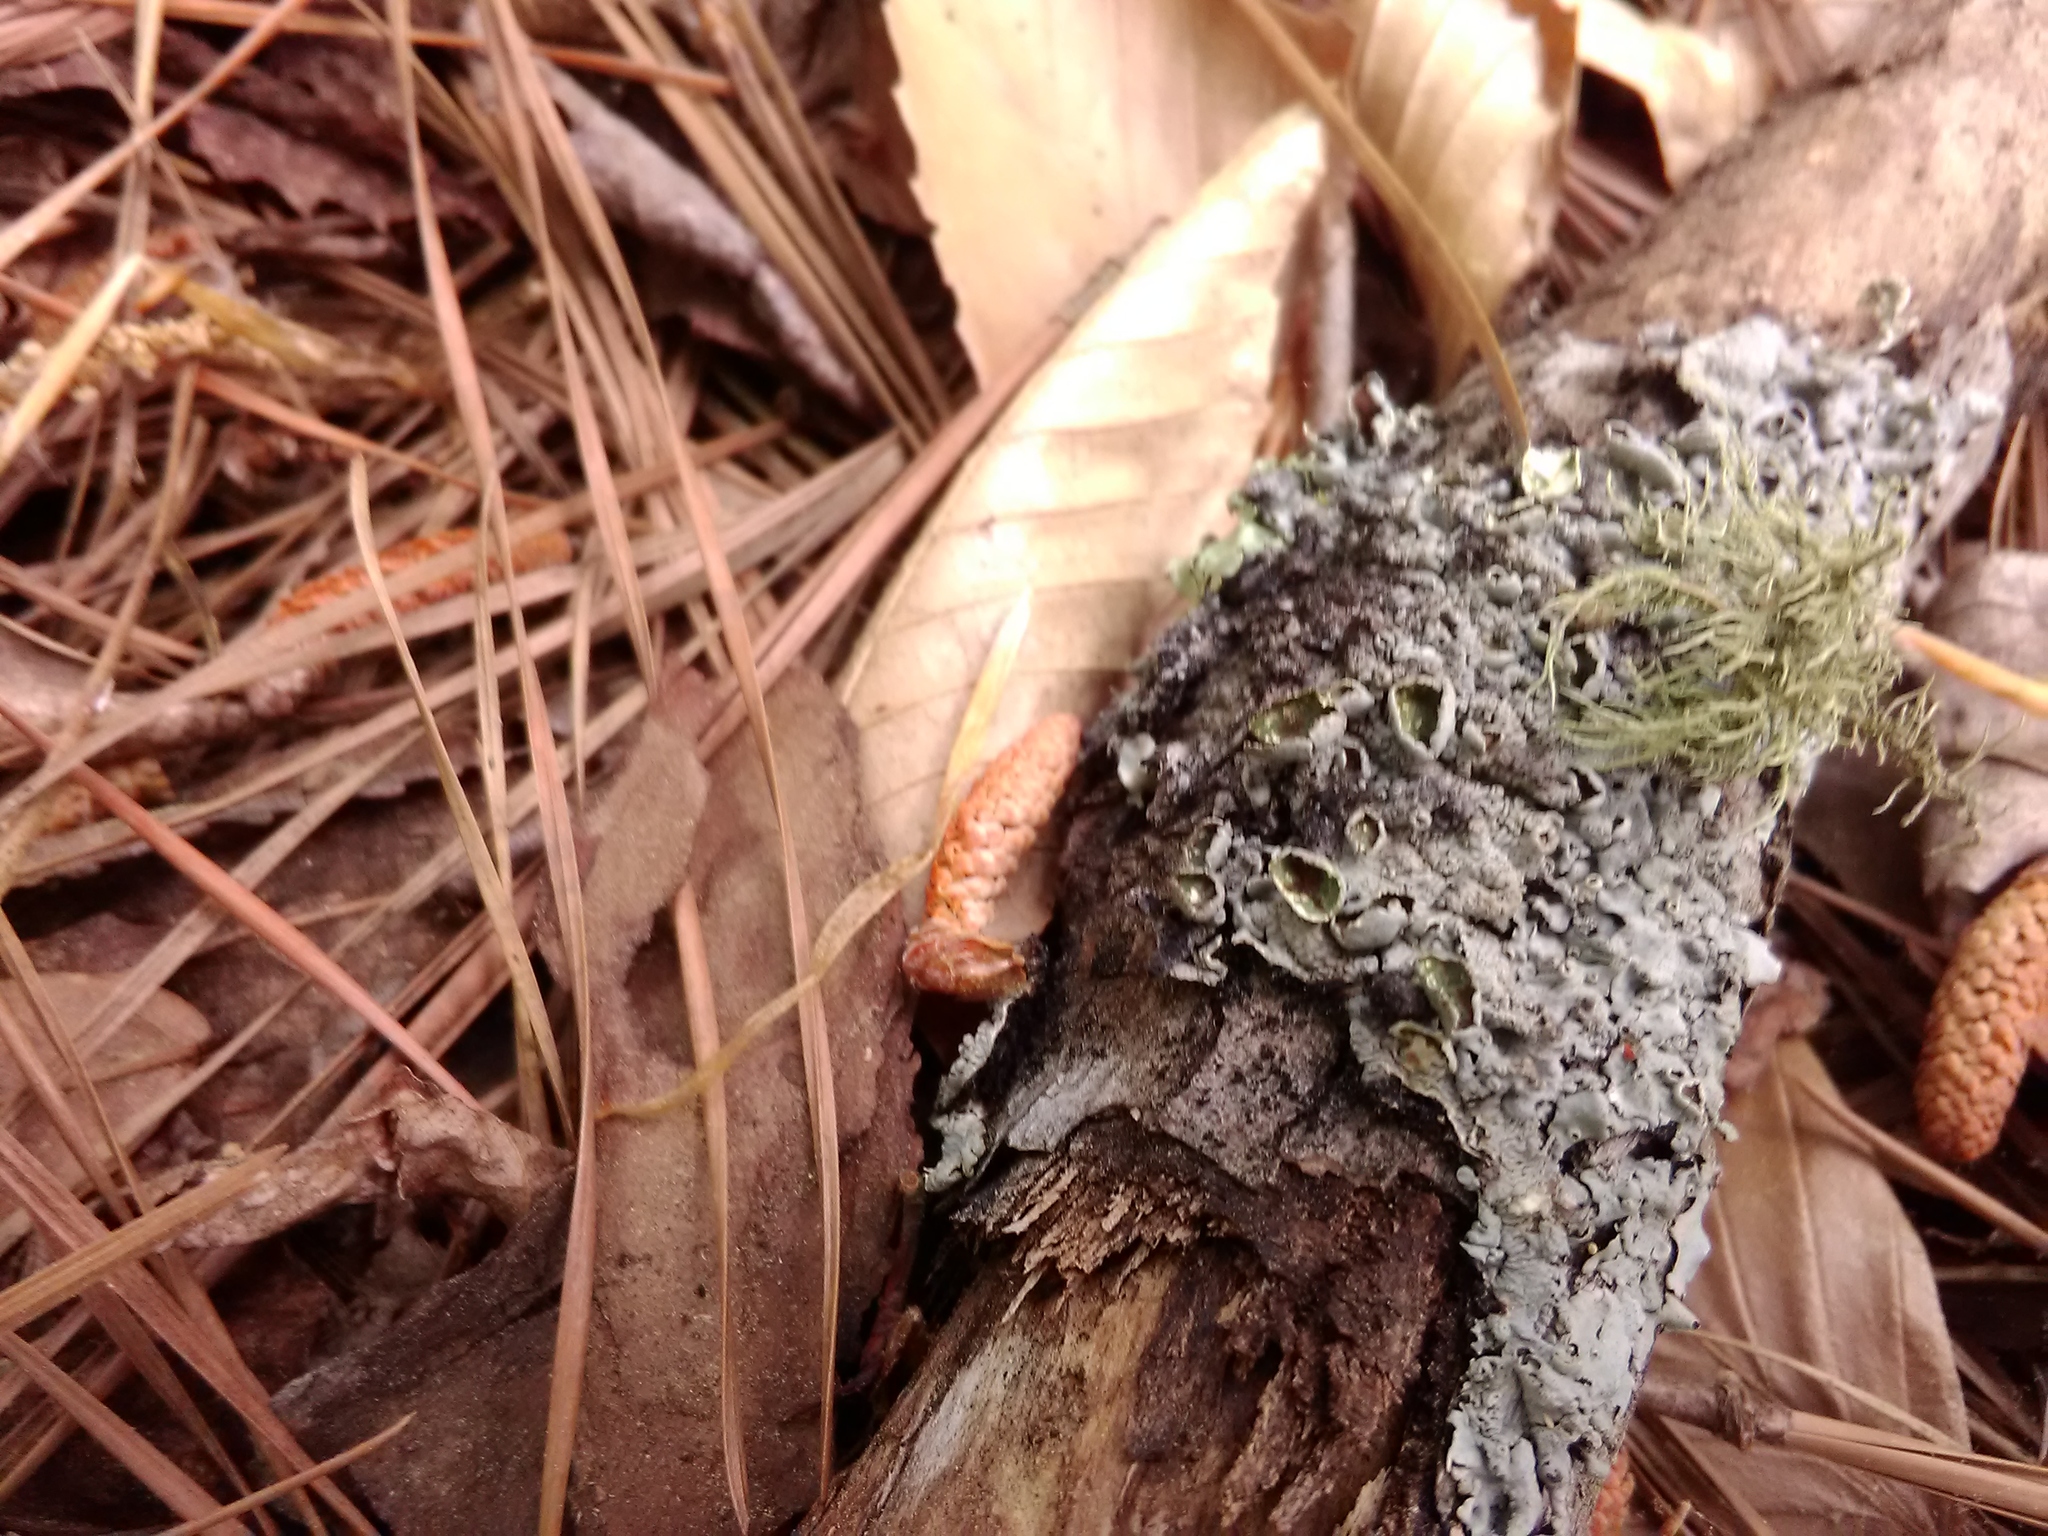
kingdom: Fungi
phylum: Ascomycota
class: Lecanoromycetes
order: Lecanorales
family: Parmeliaceae
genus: Myelochroa
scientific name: Myelochroa galbina
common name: Smooth axil-bristle lichen
